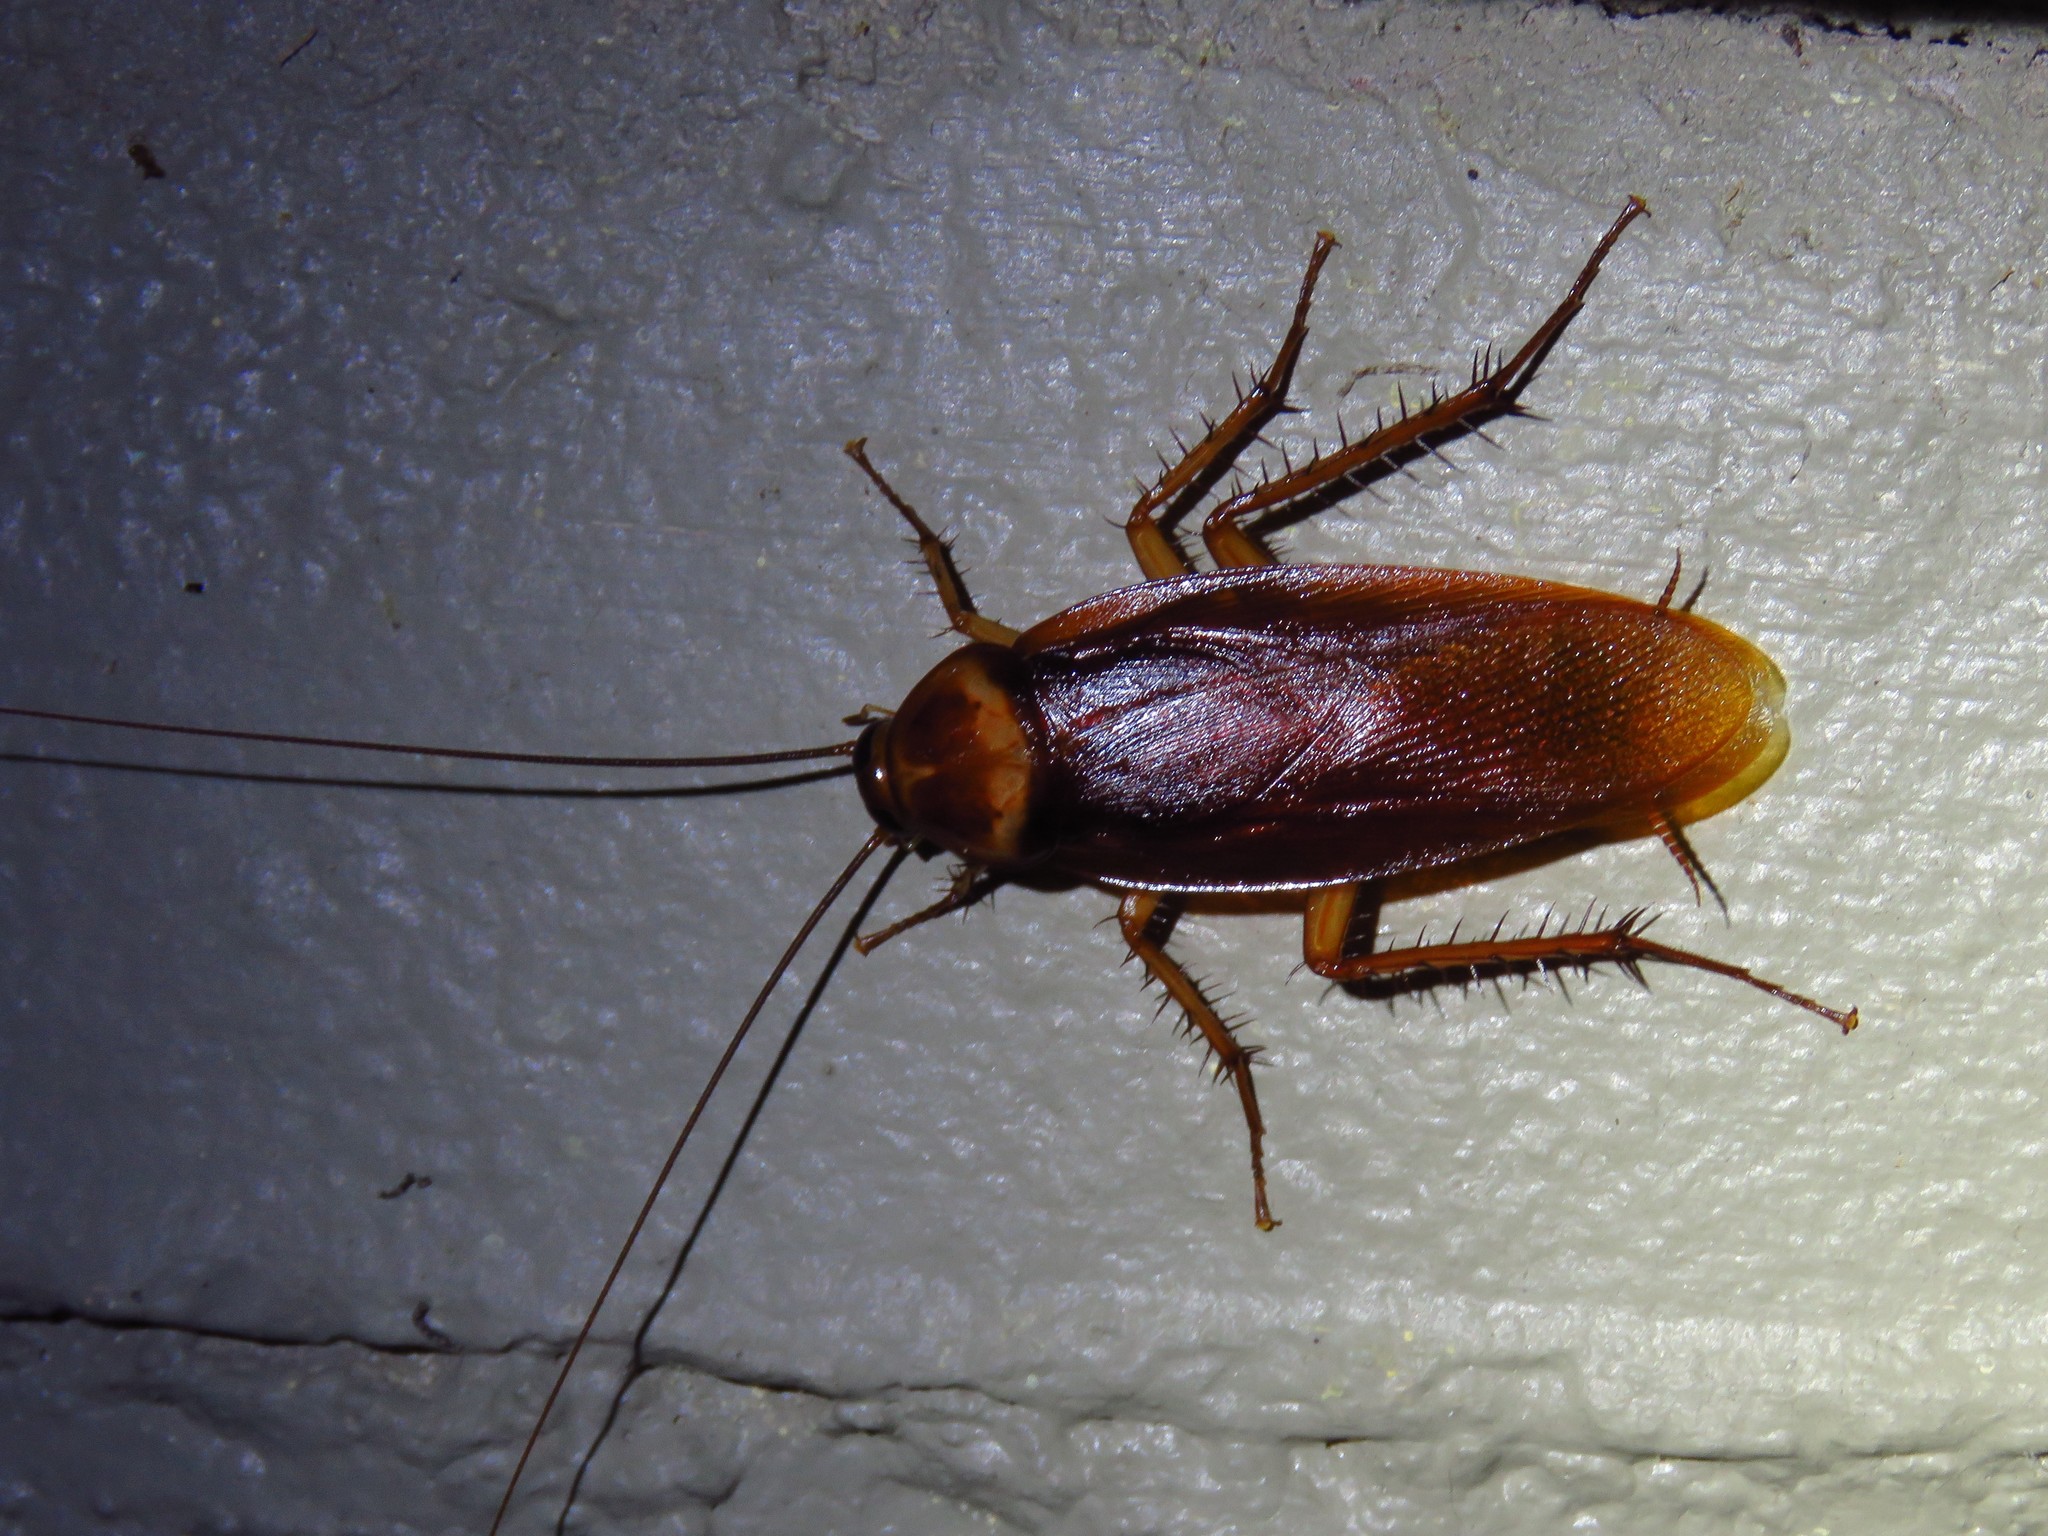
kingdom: Animalia
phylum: Arthropoda
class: Insecta
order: Blattodea
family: Blattidae
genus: Periplaneta
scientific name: Periplaneta americana
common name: American cockroach
